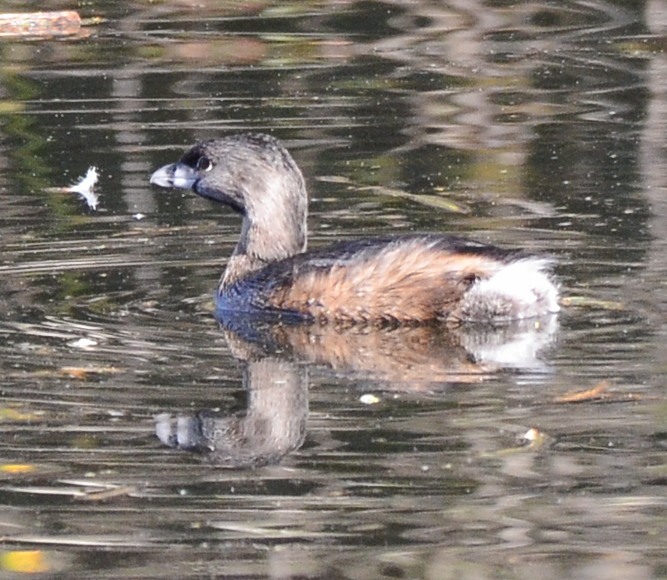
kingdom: Animalia
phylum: Chordata
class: Aves
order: Podicipediformes
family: Podicipedidae
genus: Podilymbus
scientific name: Podilymbus podiceps
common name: Pied-billed grebe
